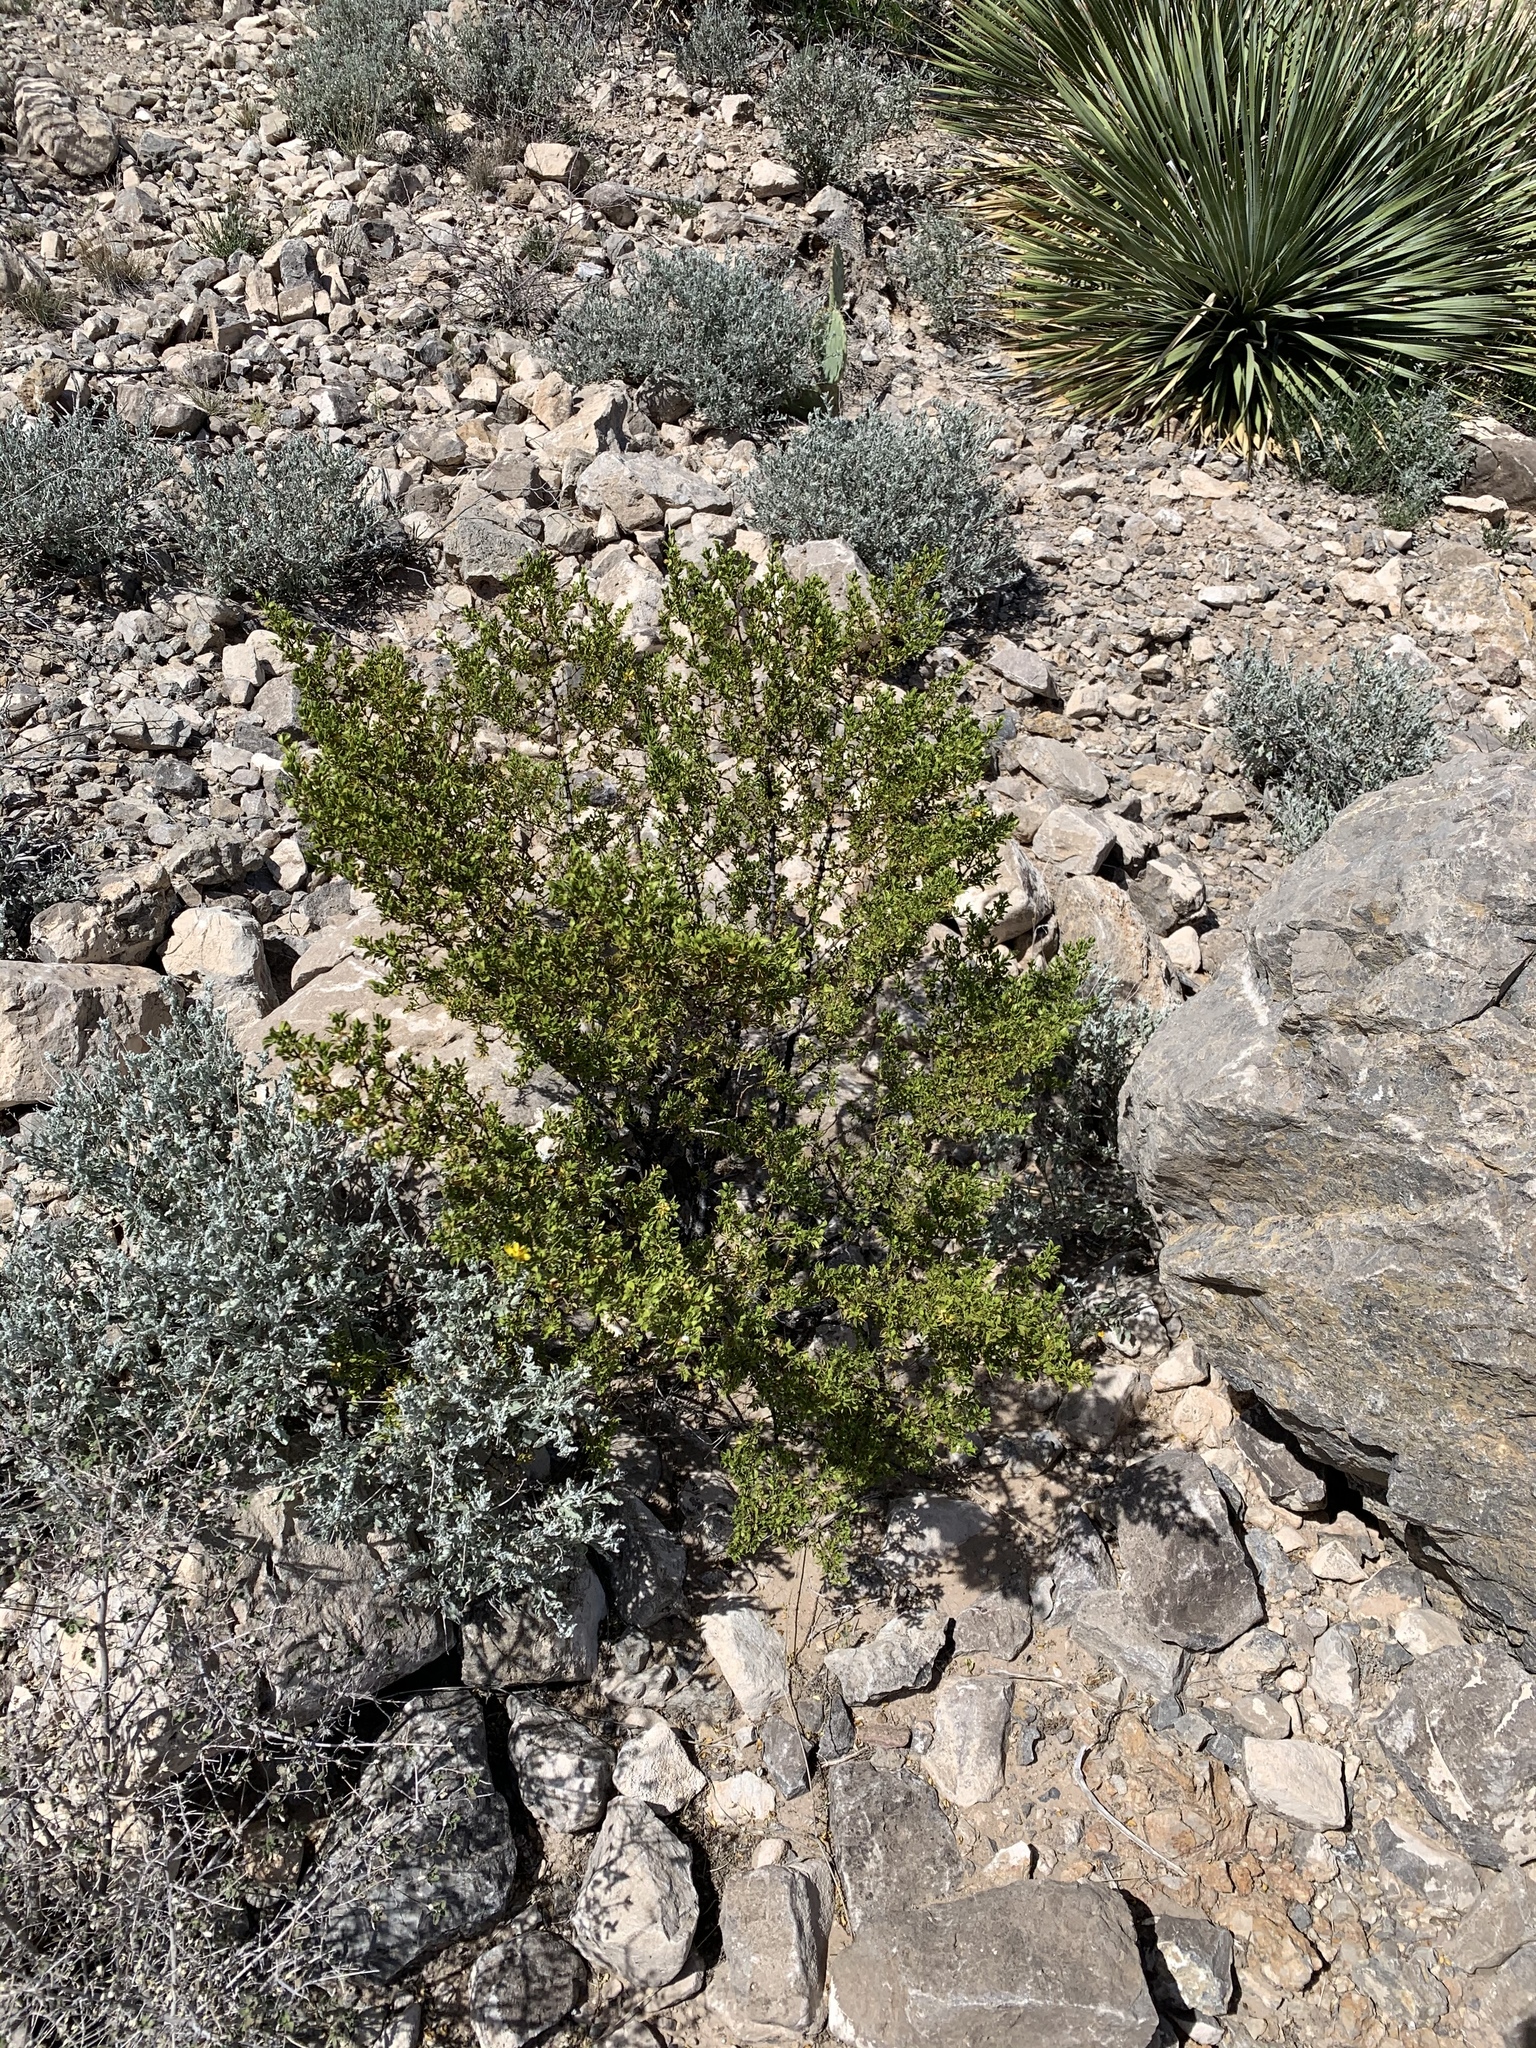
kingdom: Plantae
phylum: Tracheophyta
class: Magnoliopsida
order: Zygophyllales
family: Zygophyllaceae
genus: Larrea
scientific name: Larrea tridentata
